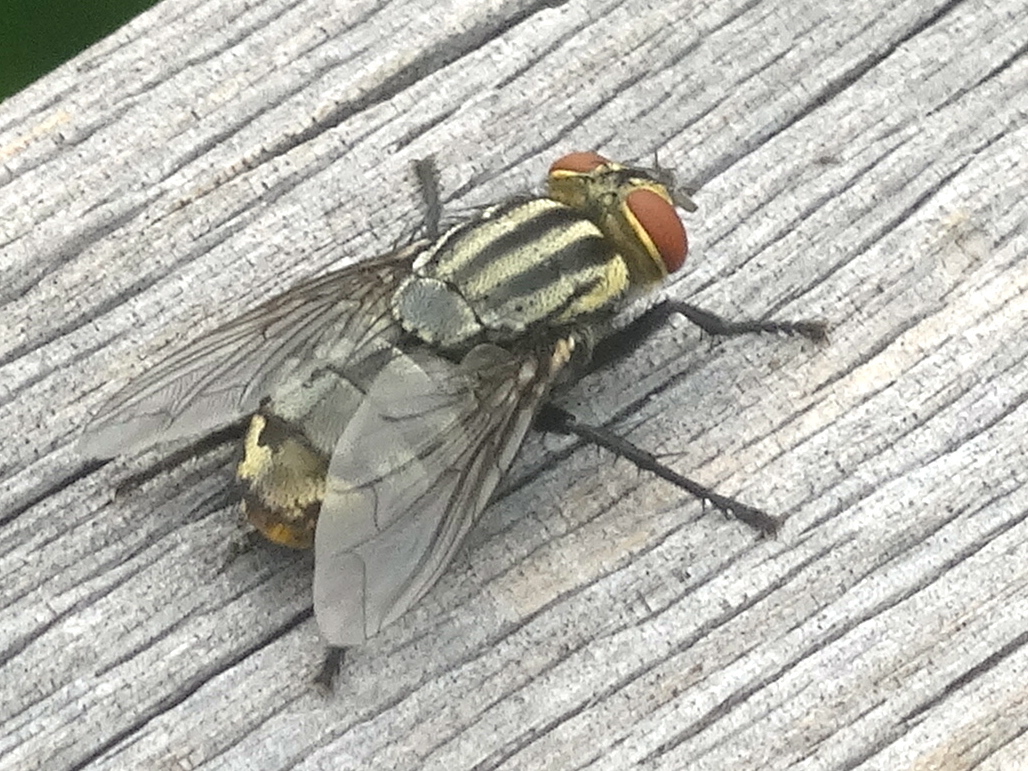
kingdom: Animalia
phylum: Arthropoda
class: Insecta
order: Diptera
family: Sarcophagidae
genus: Sarcophaga
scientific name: Sarcophaga
